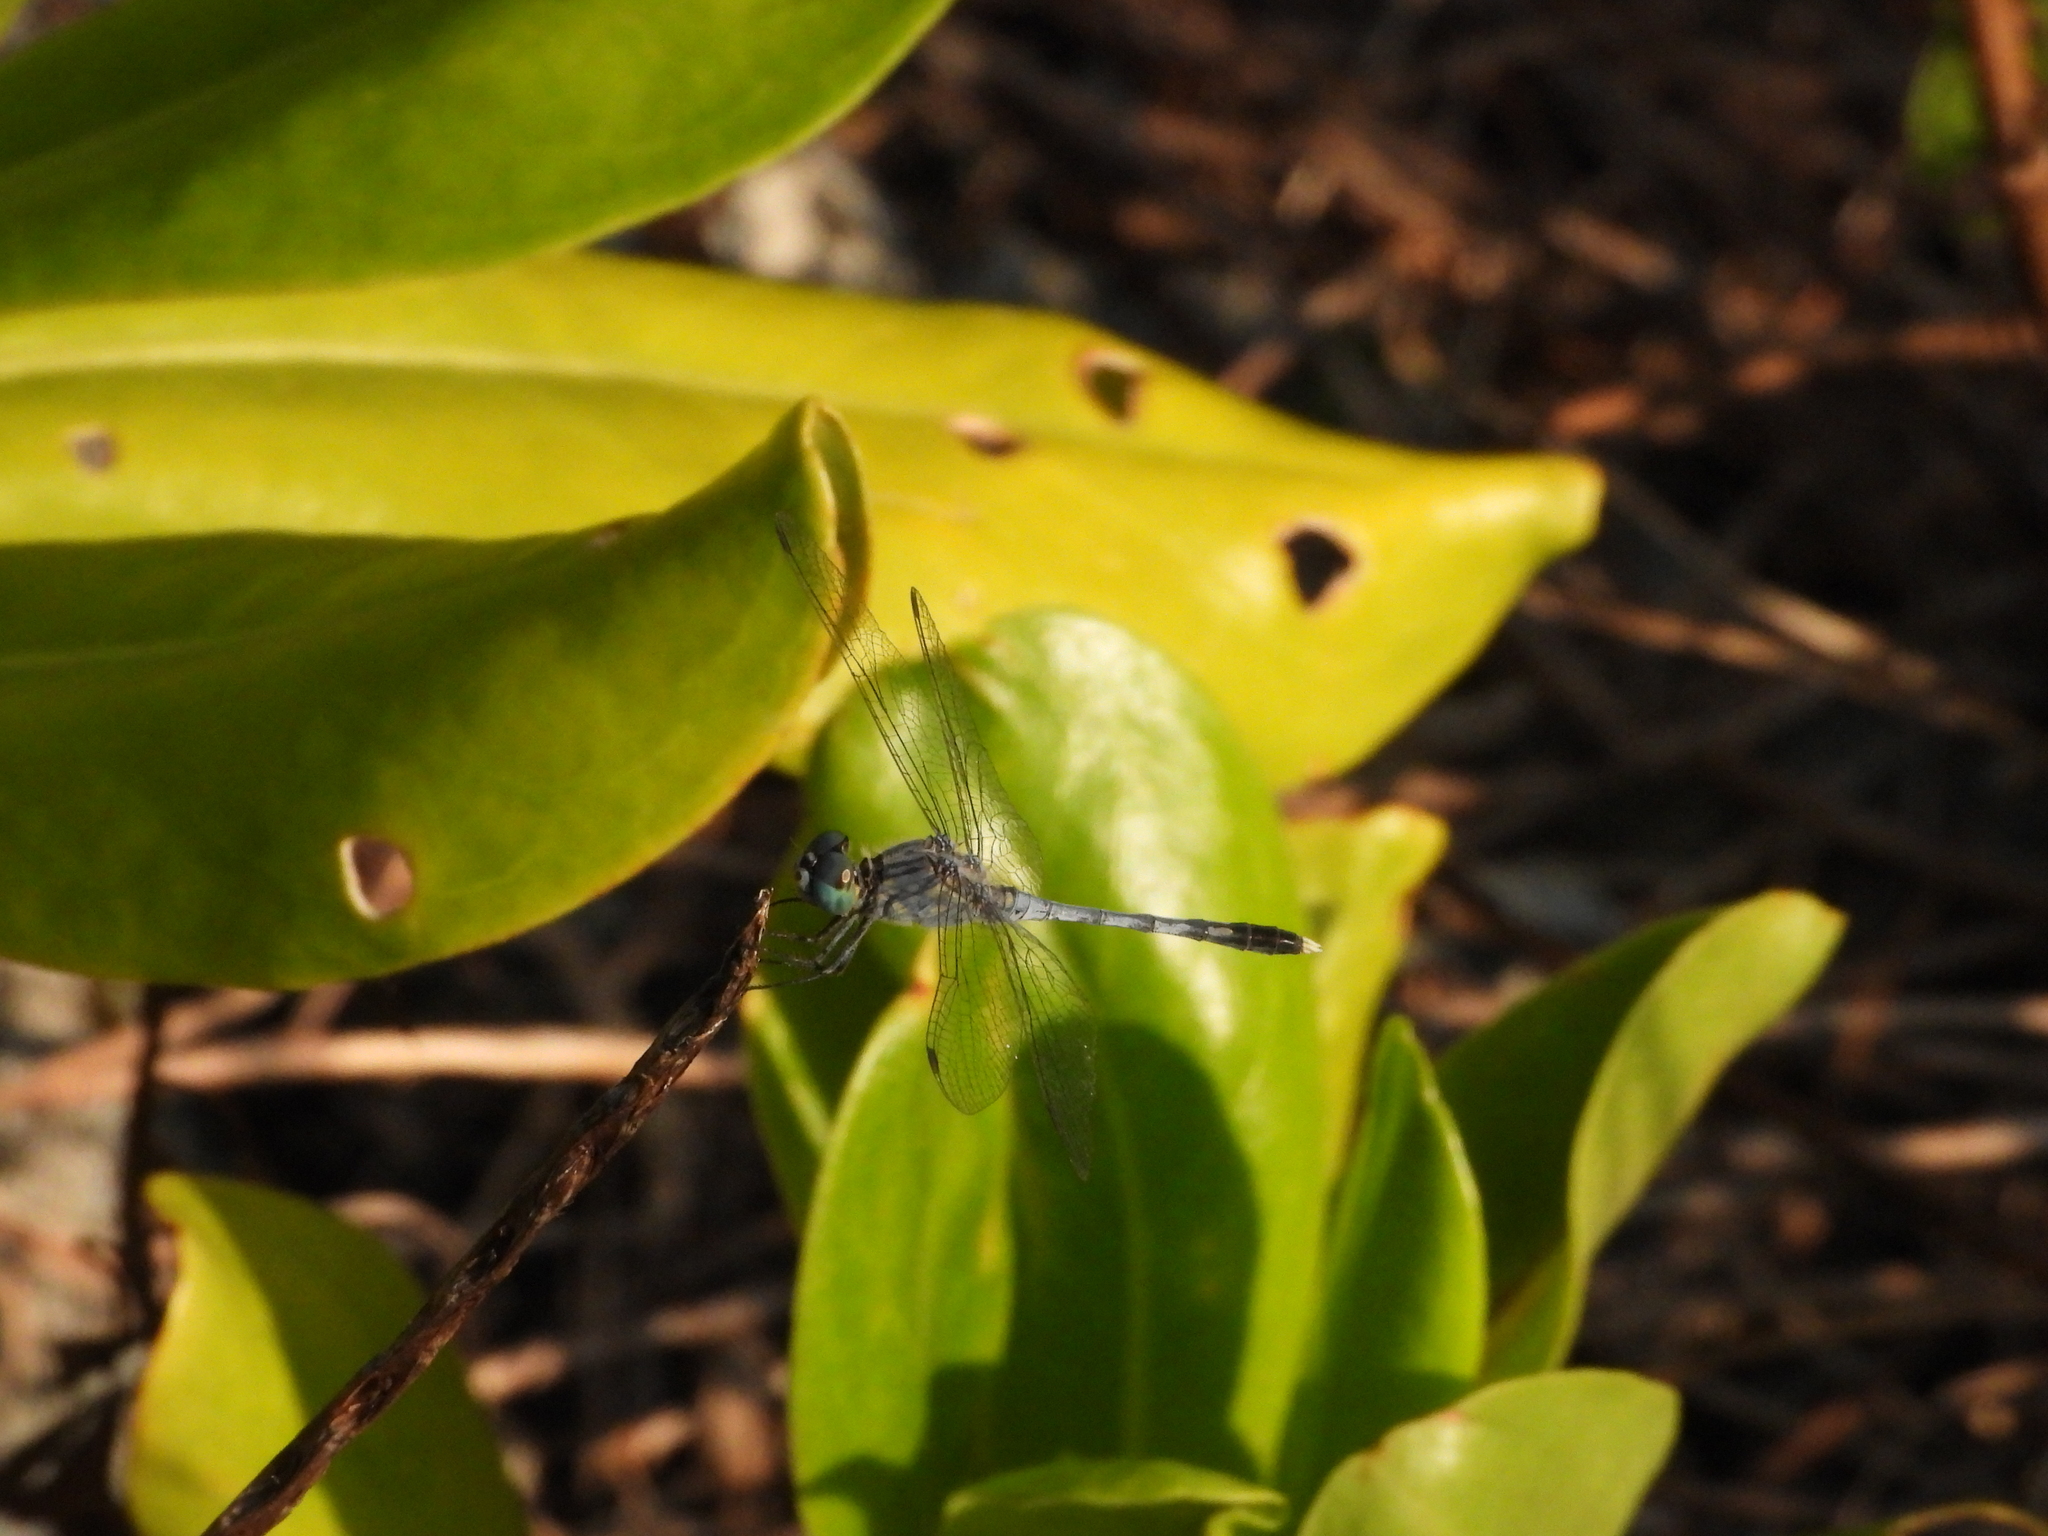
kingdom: Animalia
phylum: Arthropoda
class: Insecta
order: Odonata
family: Libellulidae
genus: Diplacodes
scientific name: Diplacodes trivialis
